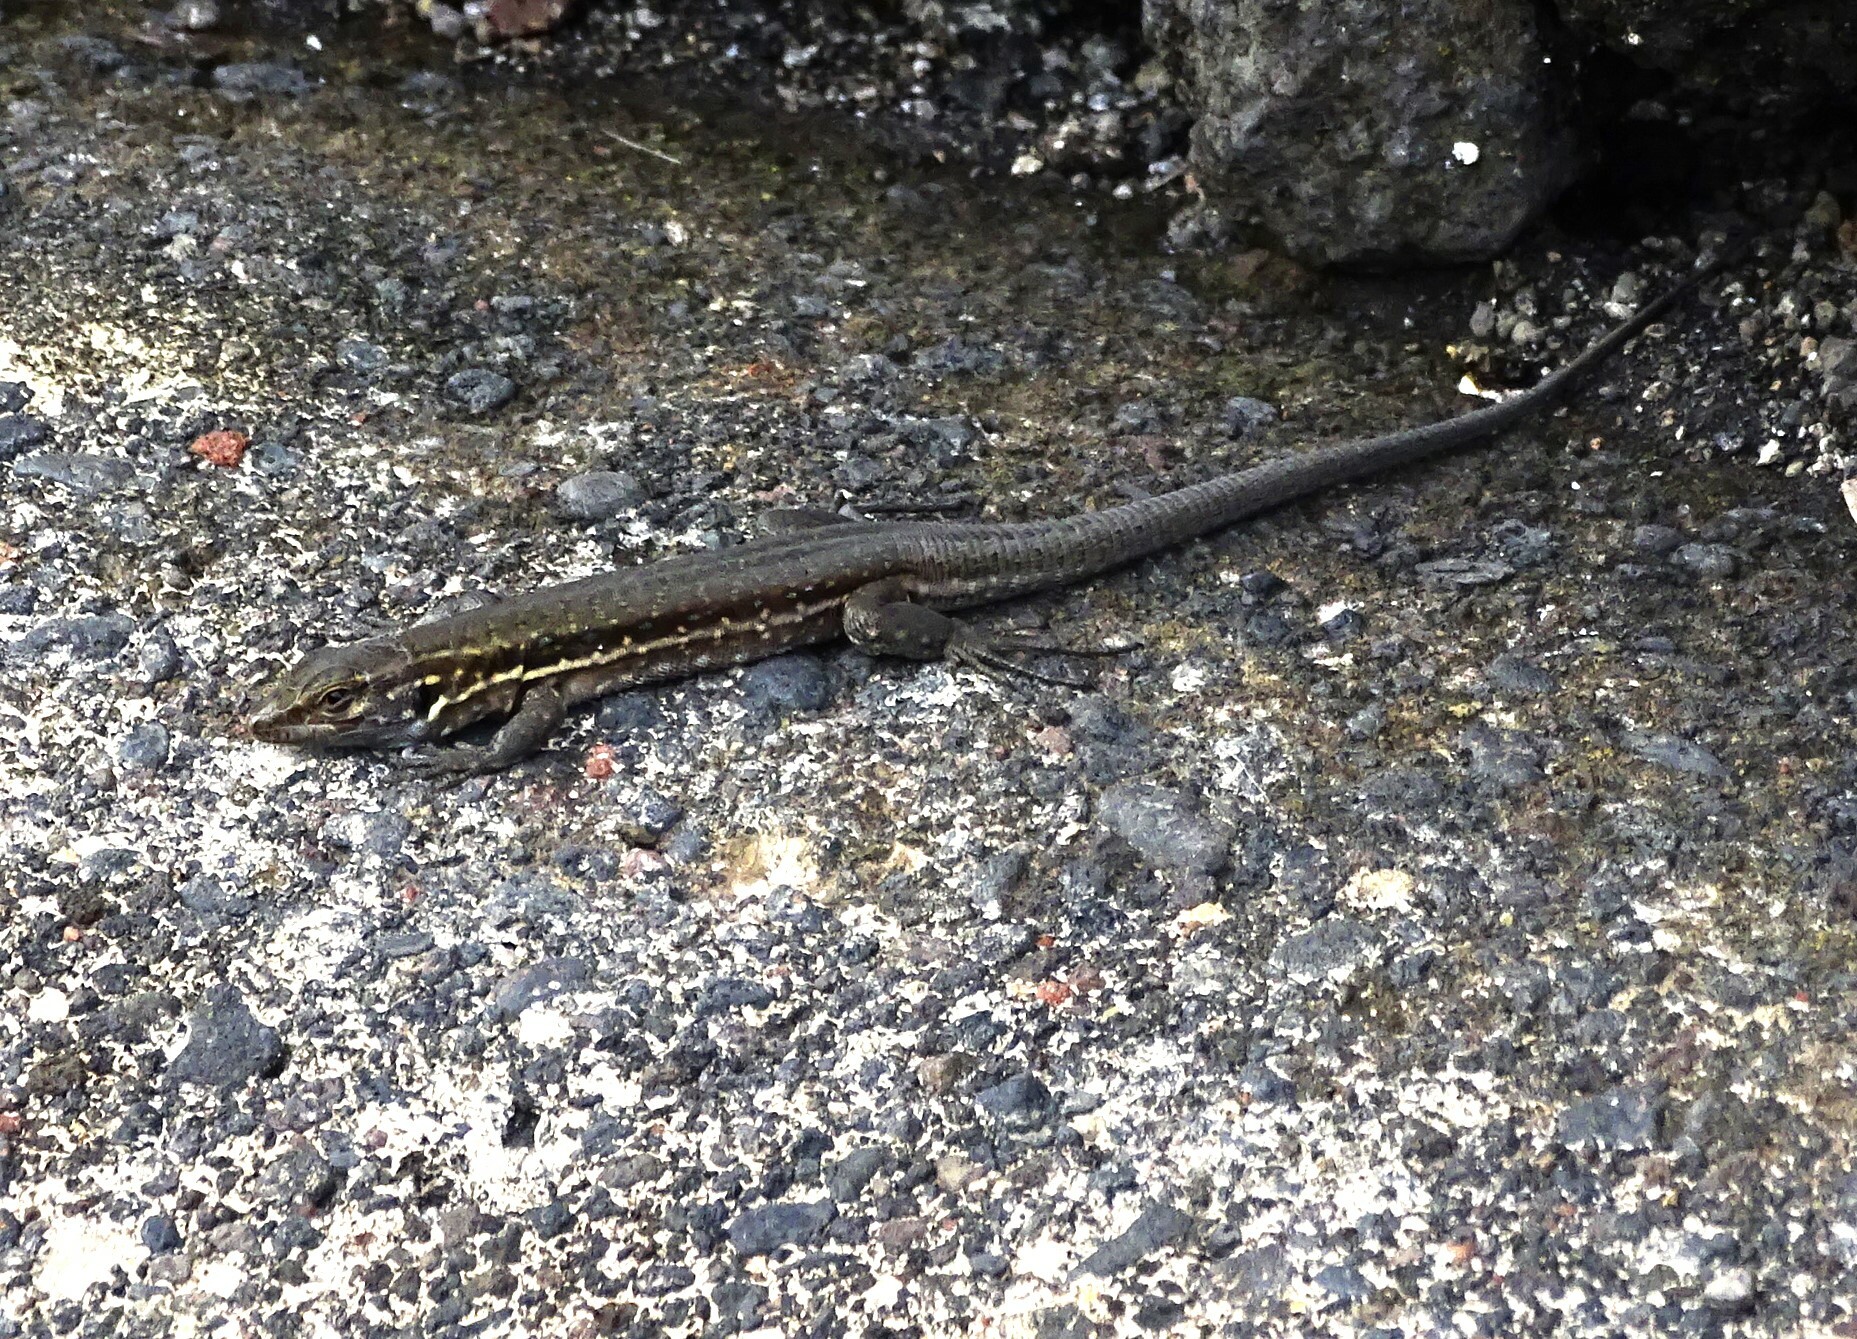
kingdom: Animalia
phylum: Chordata
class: Squamata
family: Lacertidae
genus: Gallotia
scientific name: Gallotia galloti
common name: Gallot's lizard
